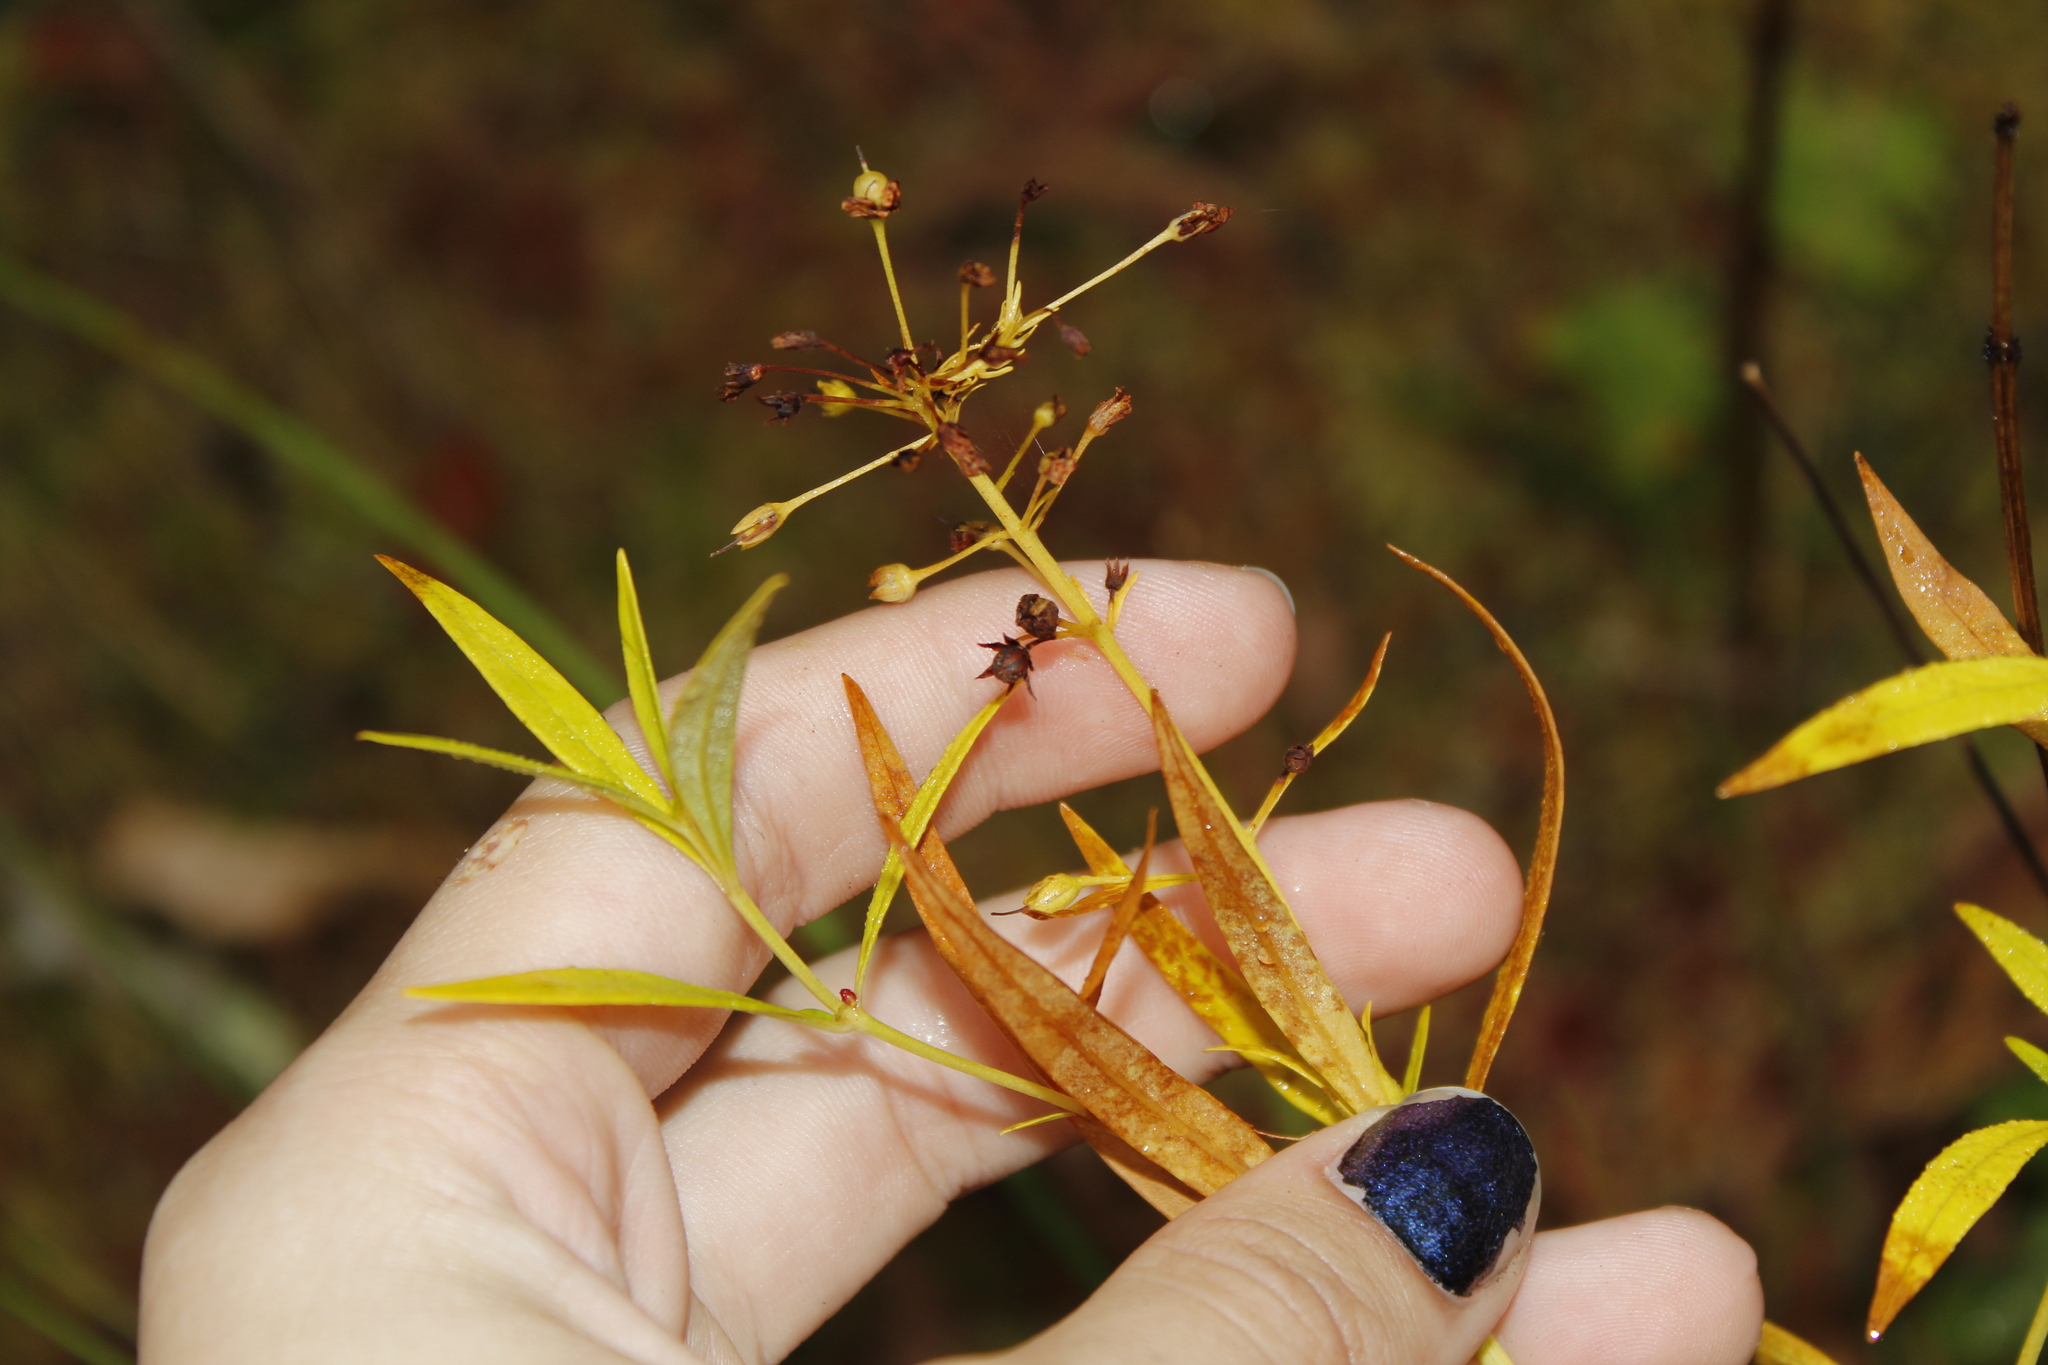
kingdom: Plantae
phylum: Tracheophyta
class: Magnoliopsida
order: Ericales
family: Primulaceae
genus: Lysimachia
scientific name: Lysimachia terrestris
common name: Lake loosestrife
